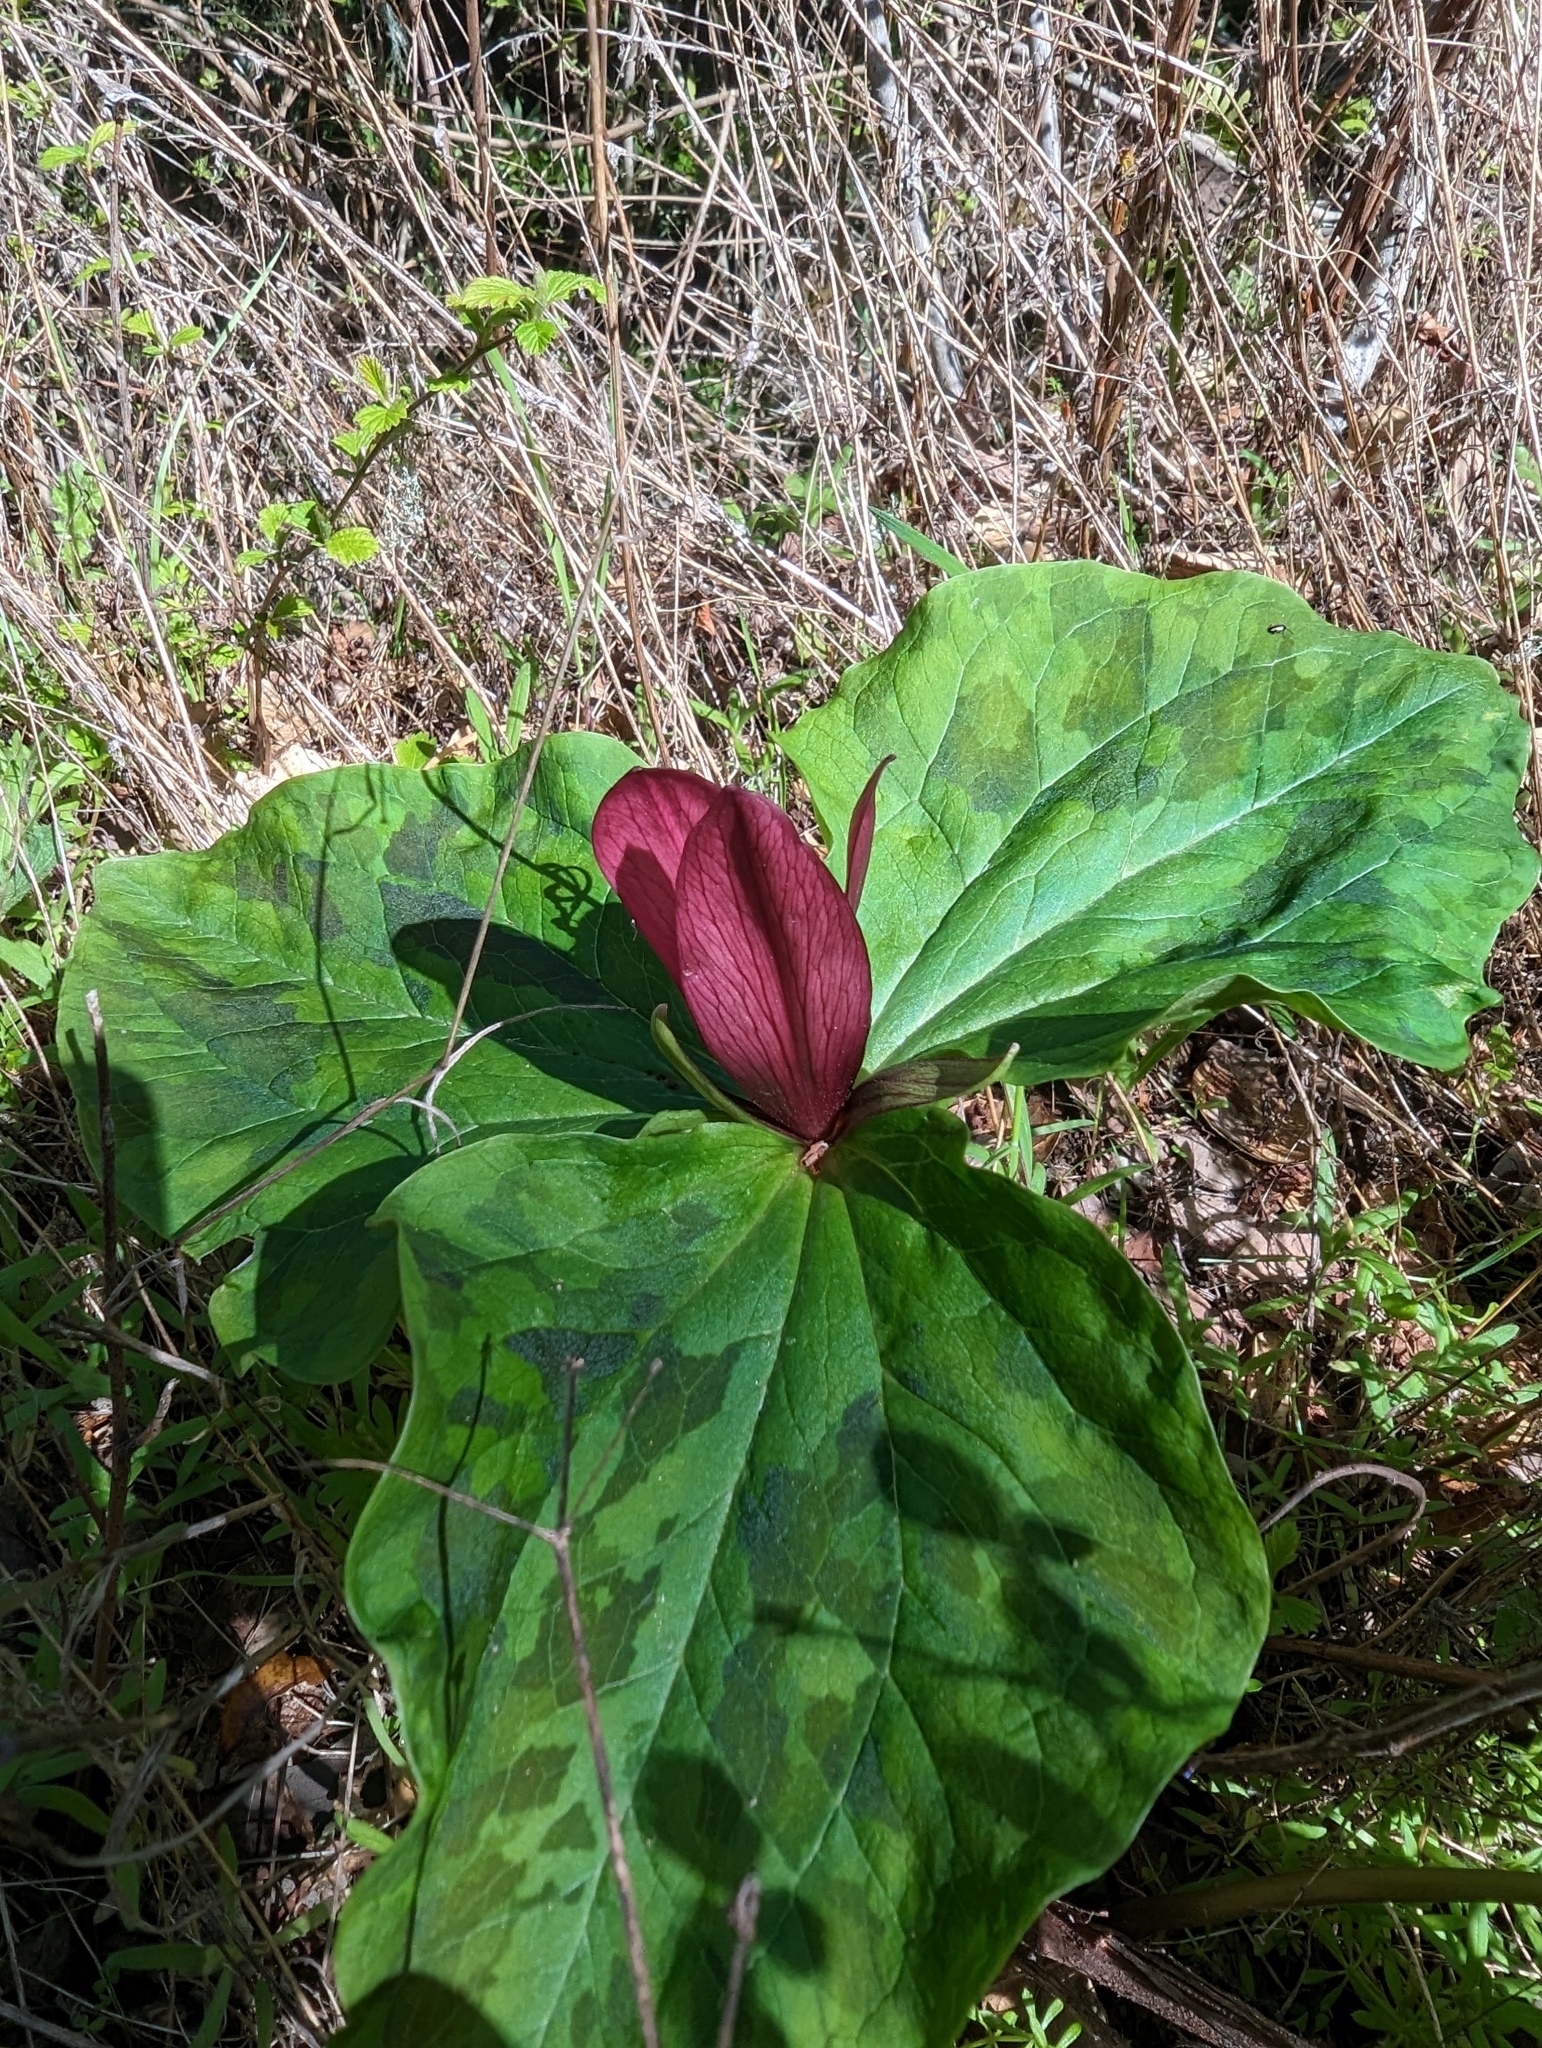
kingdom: Plantae
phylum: Tracheophyta
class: Liliopsida
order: Liliales
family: Melanthiaceae
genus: Trillium
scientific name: Trillium chloropetalum
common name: Giant trillium
